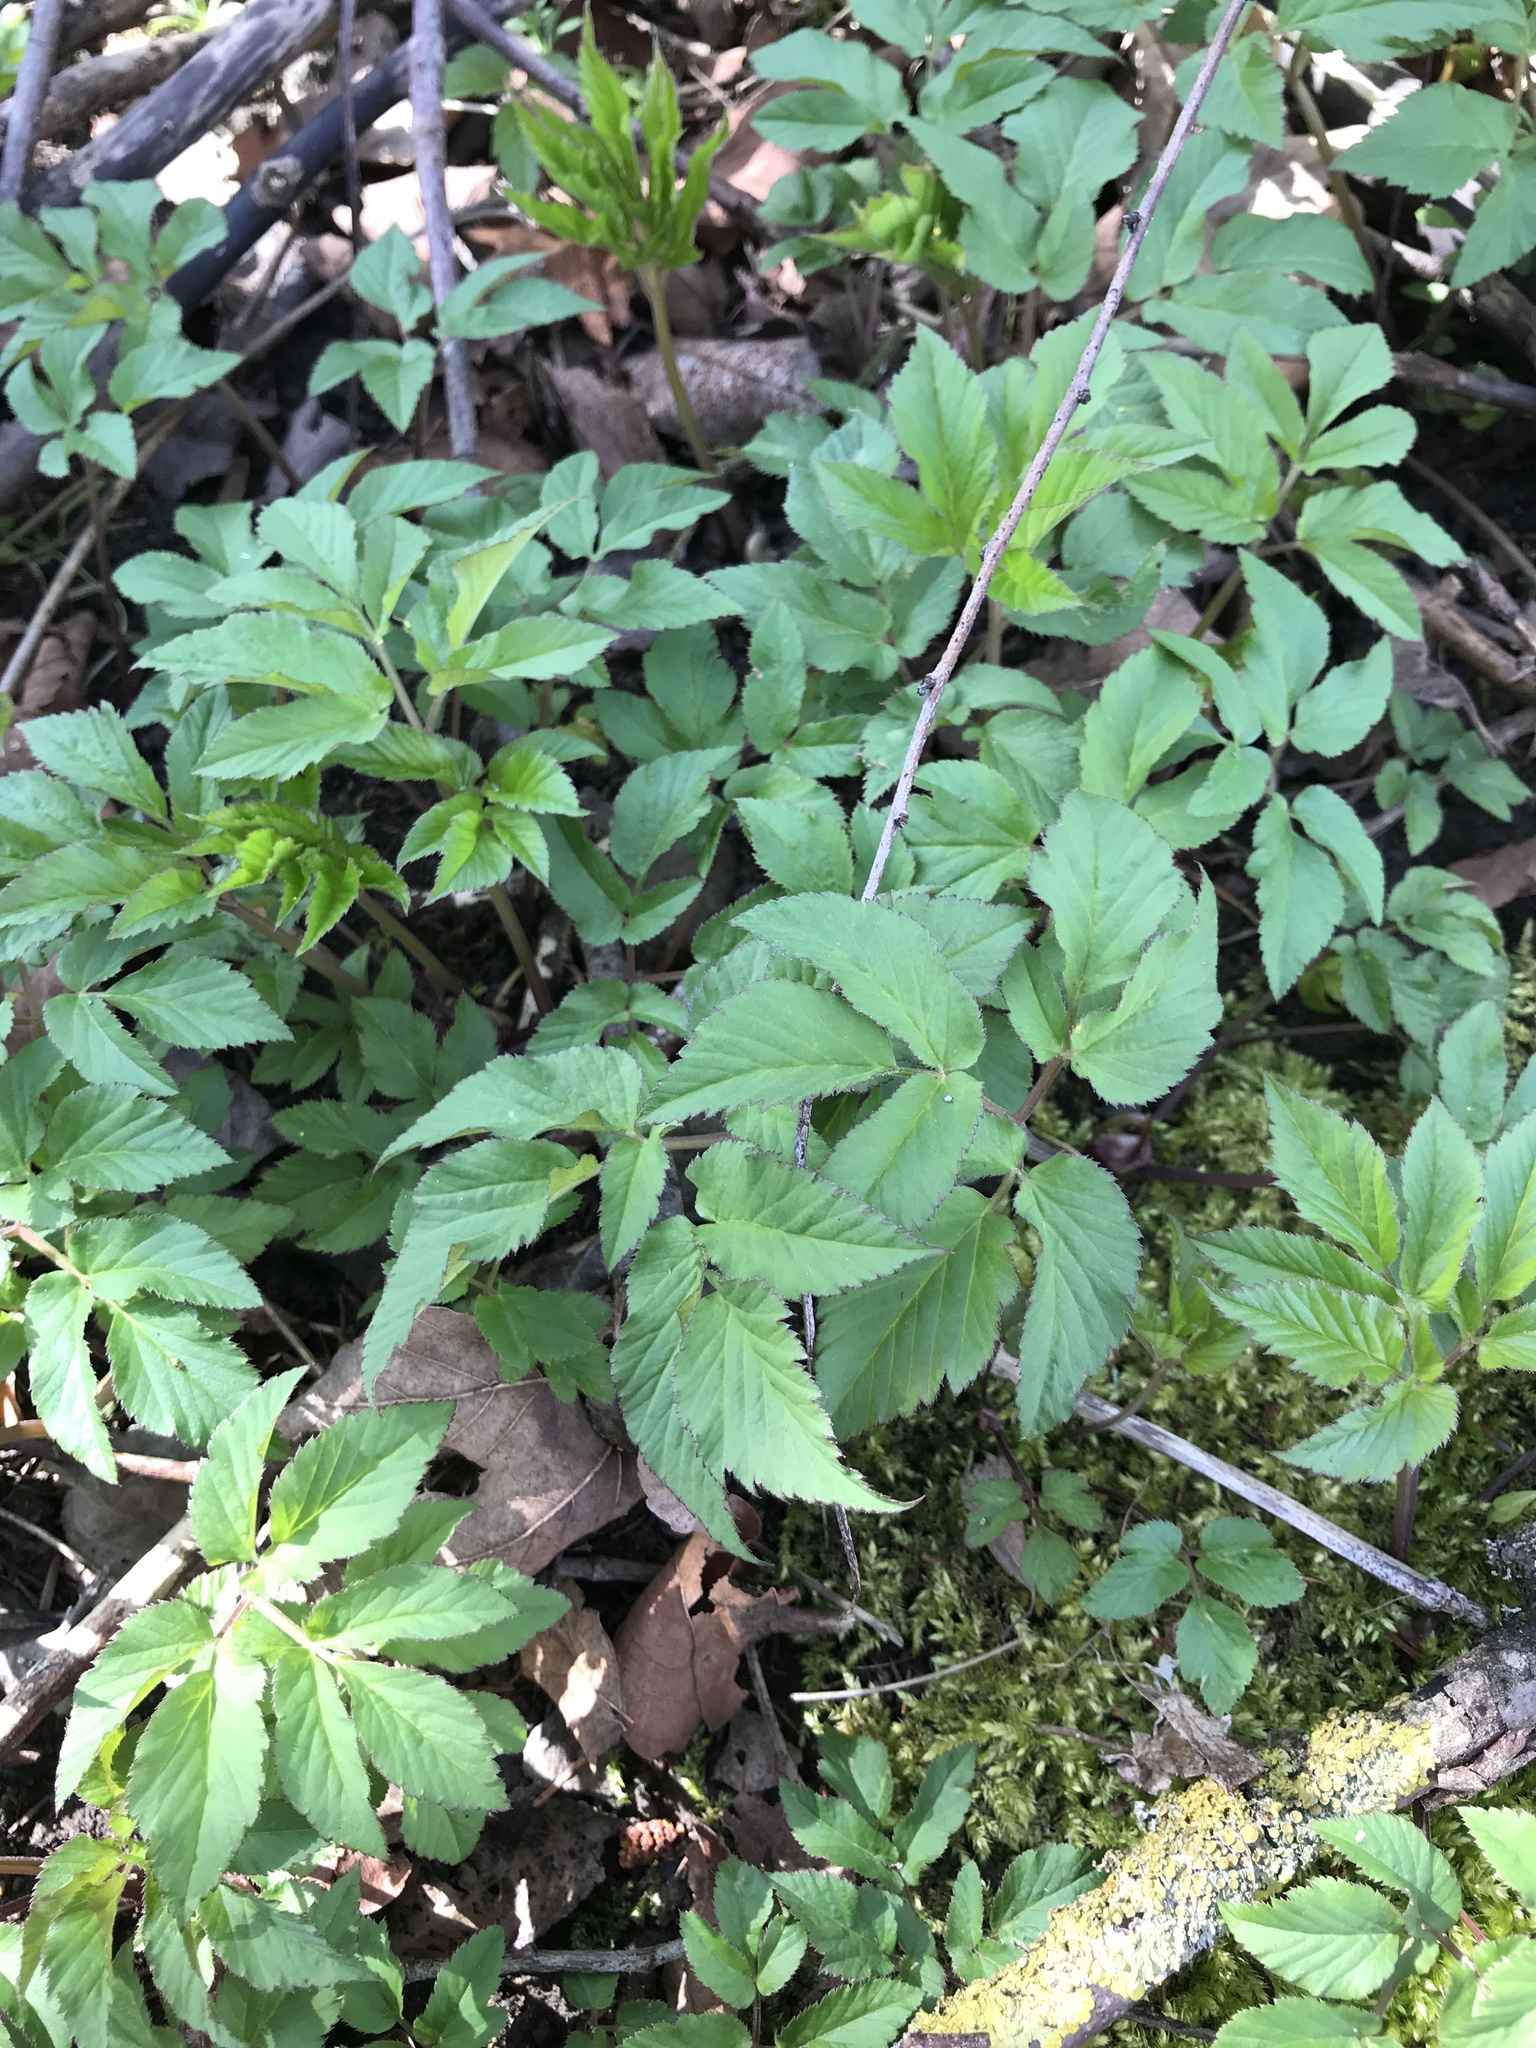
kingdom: Plantae
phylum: Tracheophyta
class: Magnoliopsida
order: Apiales
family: Apiaceae
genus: Aegopodium
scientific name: Aegopodium podagraria
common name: Ground-elder
